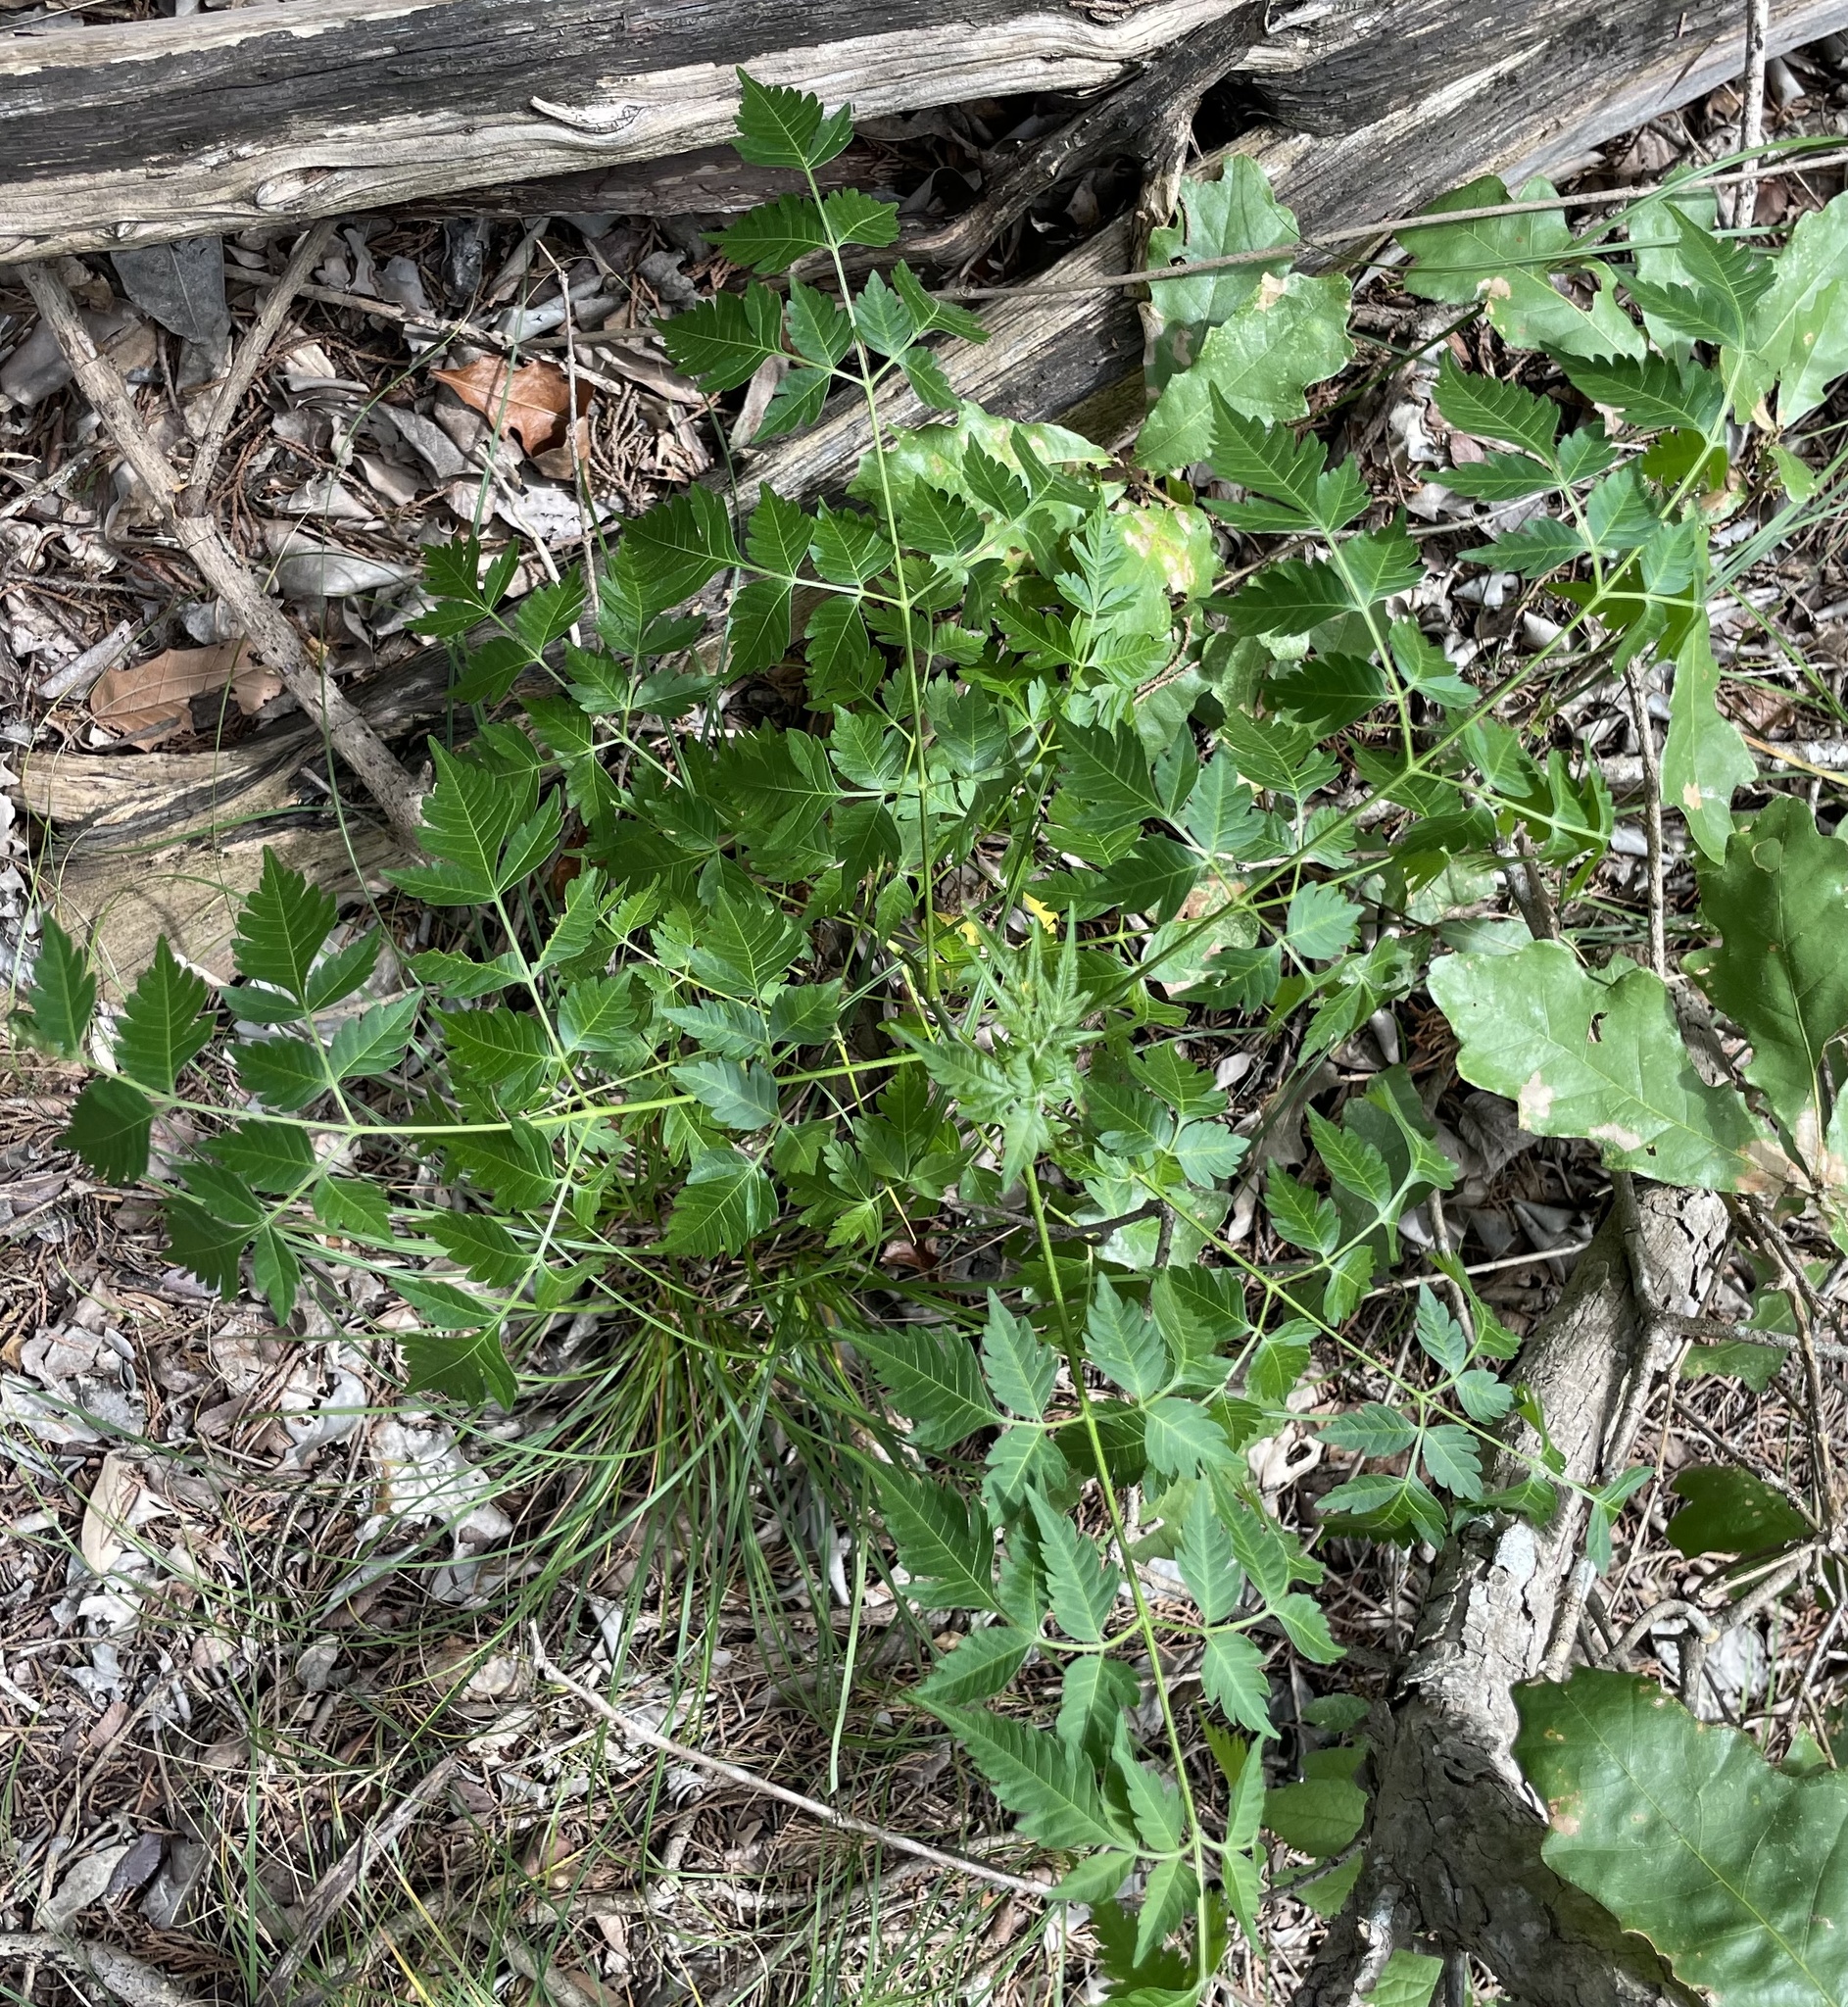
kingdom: Plantae
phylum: Tracheophyta
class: Magnoliopsida
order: Sapindales
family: Meliaceae
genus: Melia
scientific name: Melia azedarach
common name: Chinaberrytree
